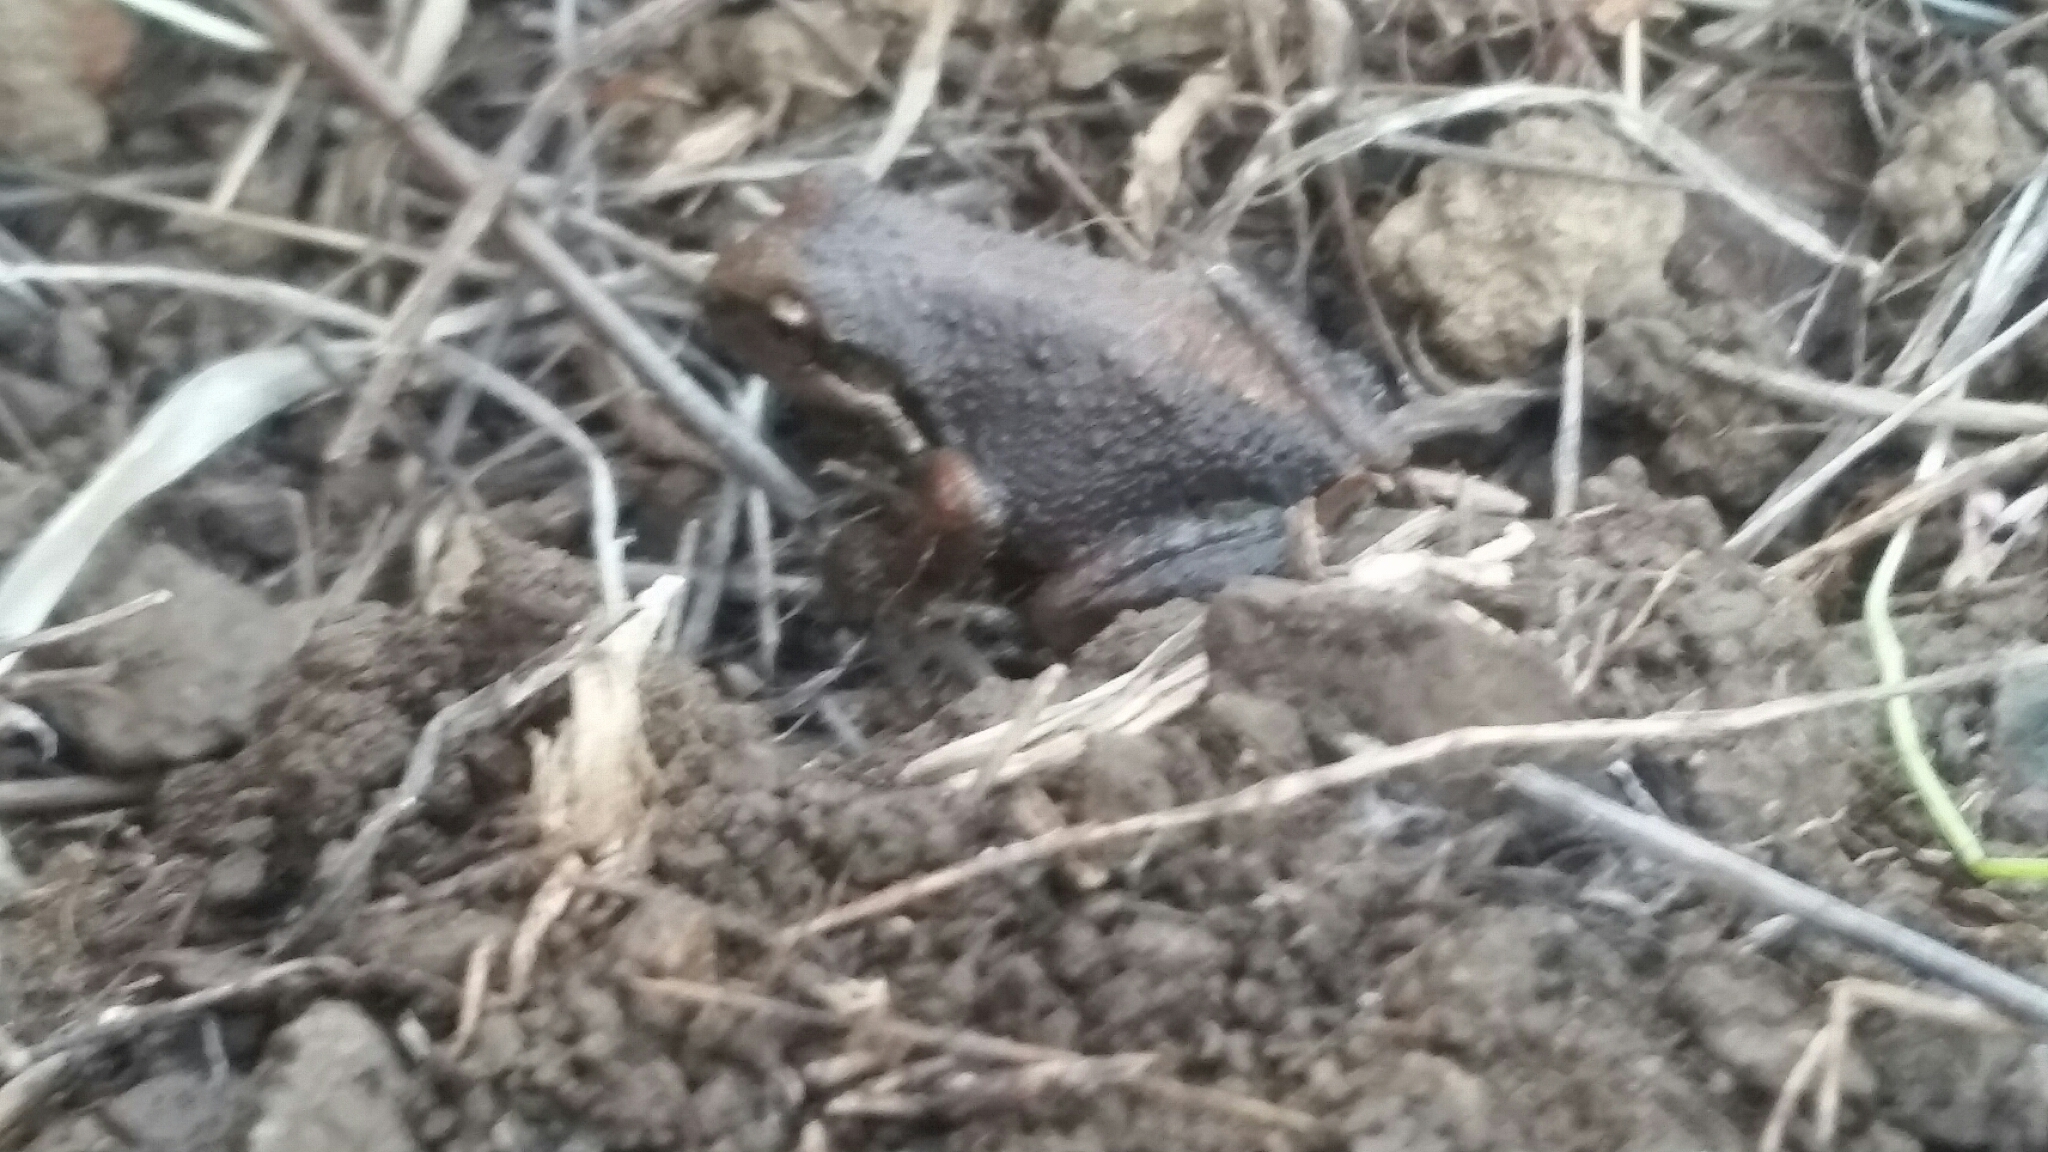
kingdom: Animalia
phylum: Chordata
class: Amphibia
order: Anura
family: Hylidae
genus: Pseudacris
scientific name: Pseudacris regilla
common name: Pacific chorus frog
